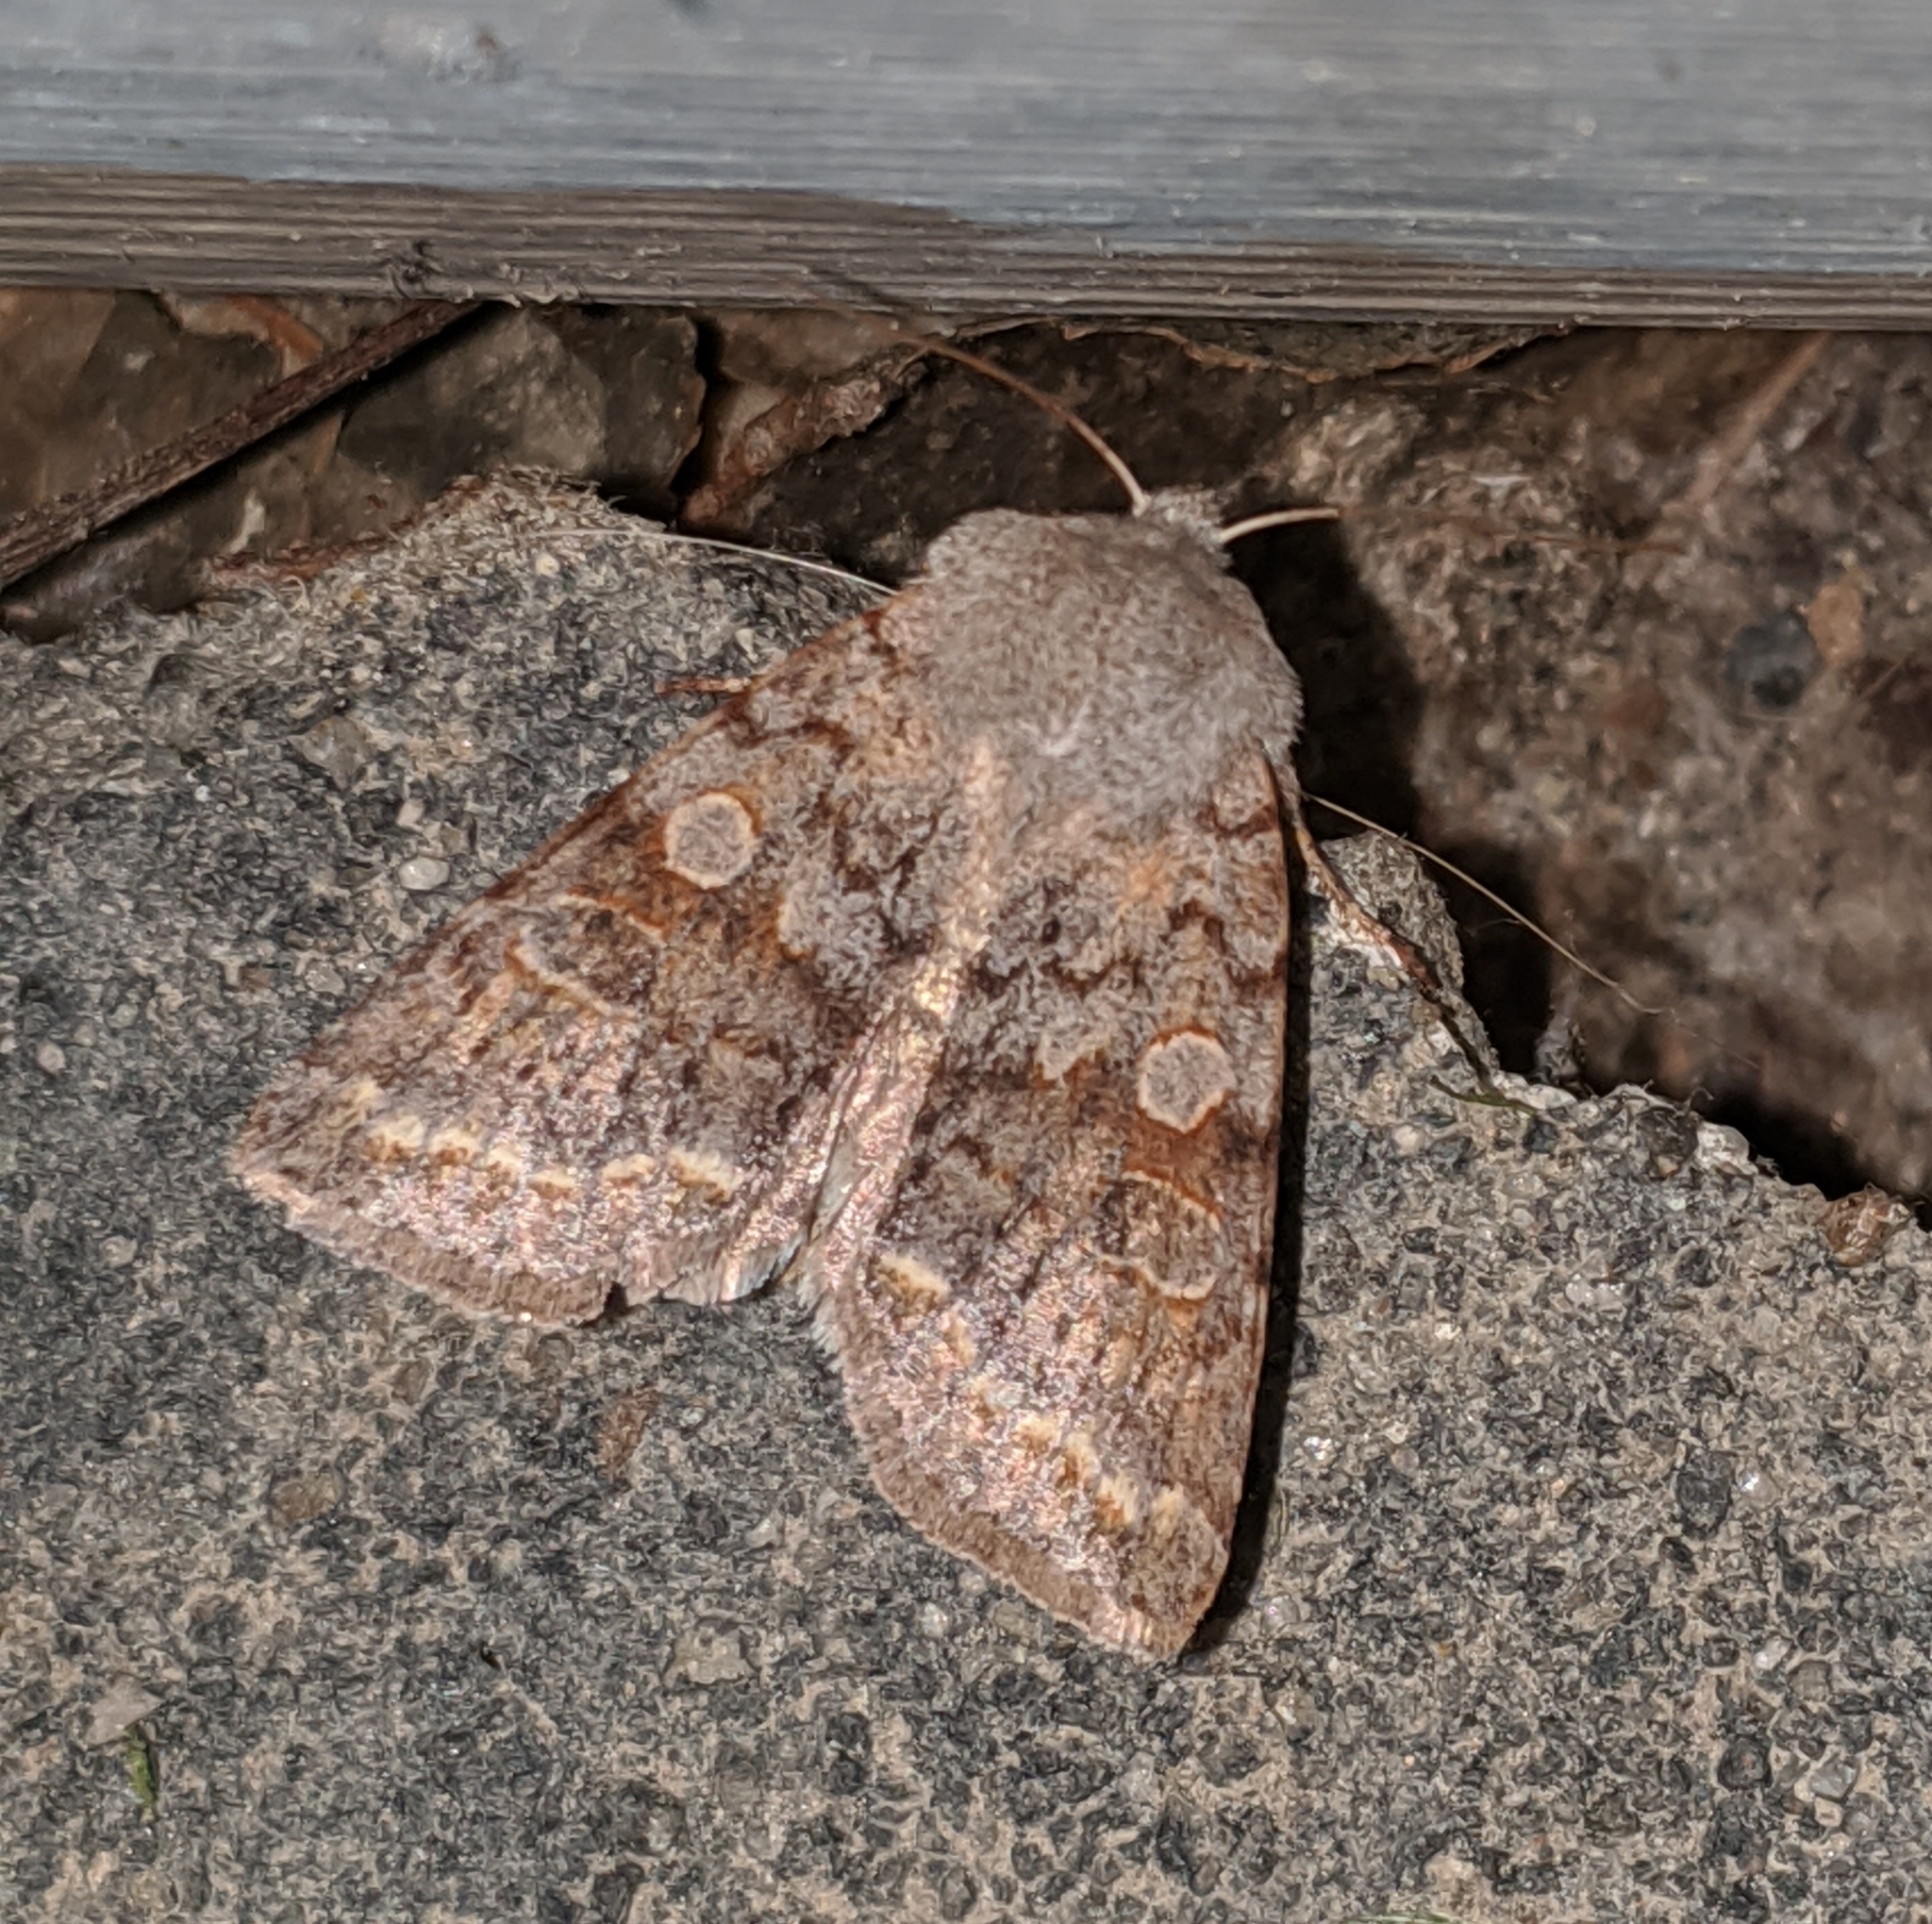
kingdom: Animalia
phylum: Arthropoda
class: Insecta
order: Lepidoptera
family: Noctuidae
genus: Orthosia
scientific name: Orthosia revicta
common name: Rusty whitesided caterpillar
